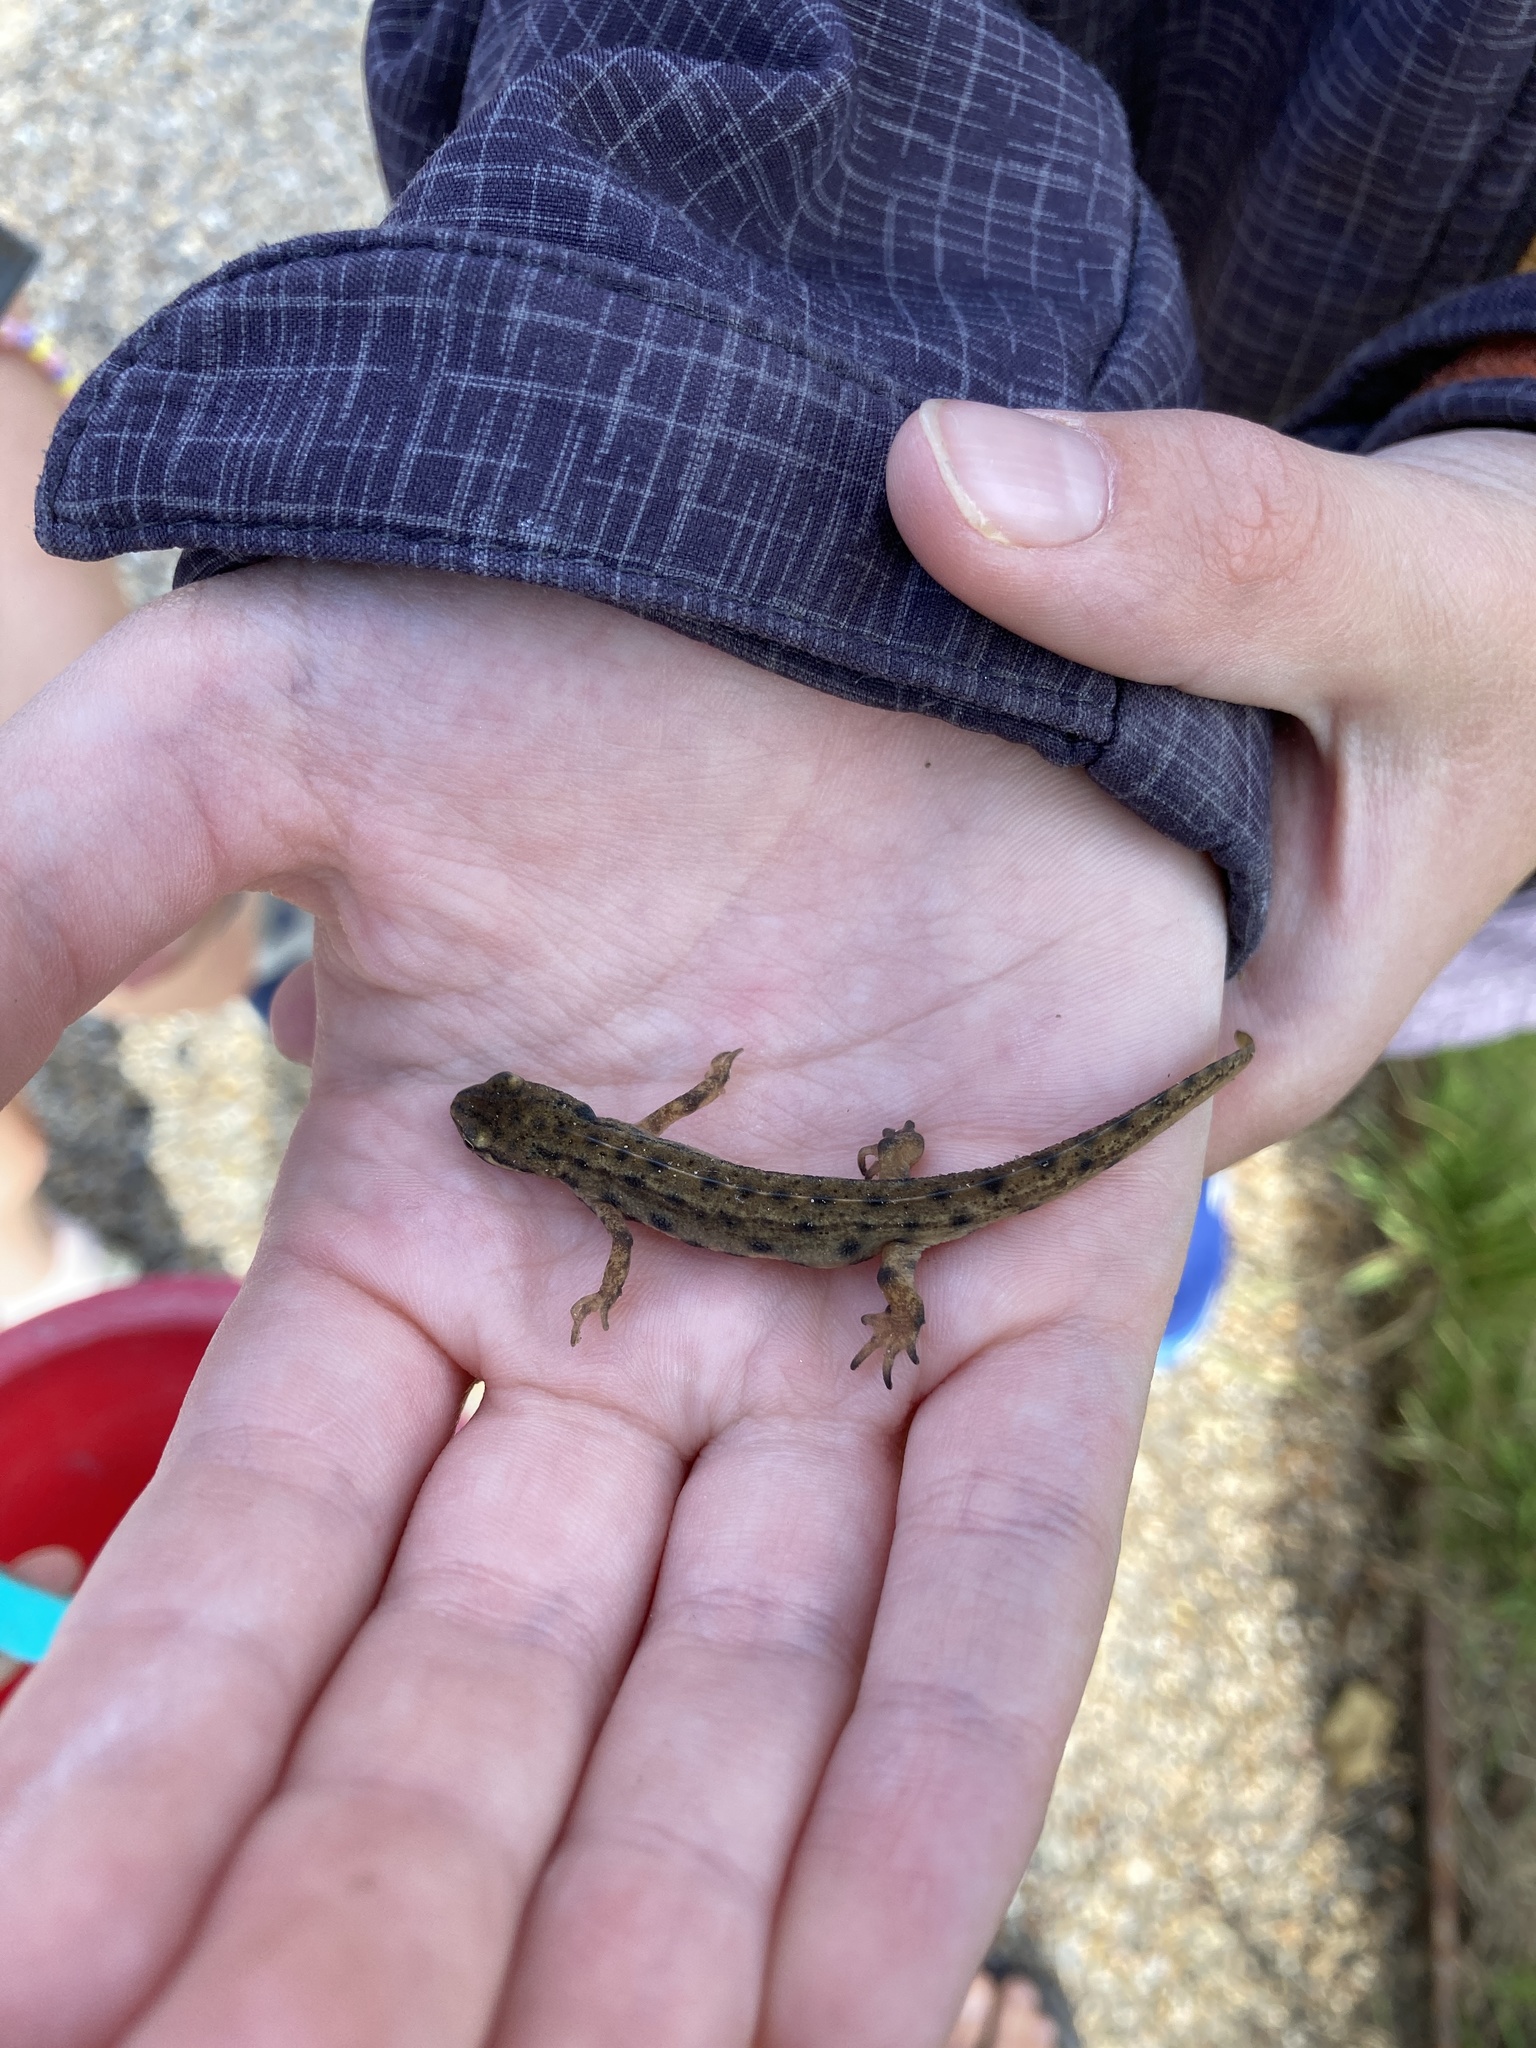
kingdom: Animalia
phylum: Chordata
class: Amphibia
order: Caudata
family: Salamandridae
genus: Lissotriton
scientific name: Lissotriton vulgaris
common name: Smooth newt
